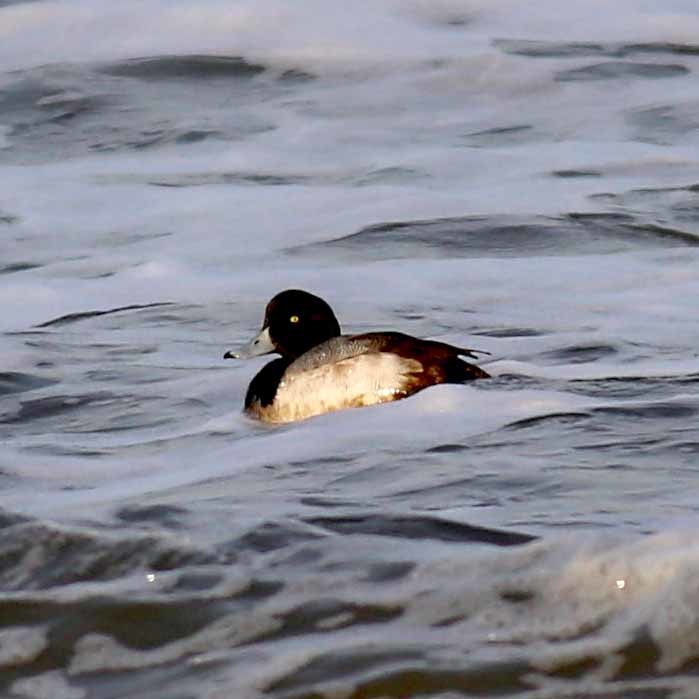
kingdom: Animalia
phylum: Chordata
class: Aves
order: Anseriformes
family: Anatidae
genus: Aythya
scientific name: Aythya marila
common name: Greater scaup
